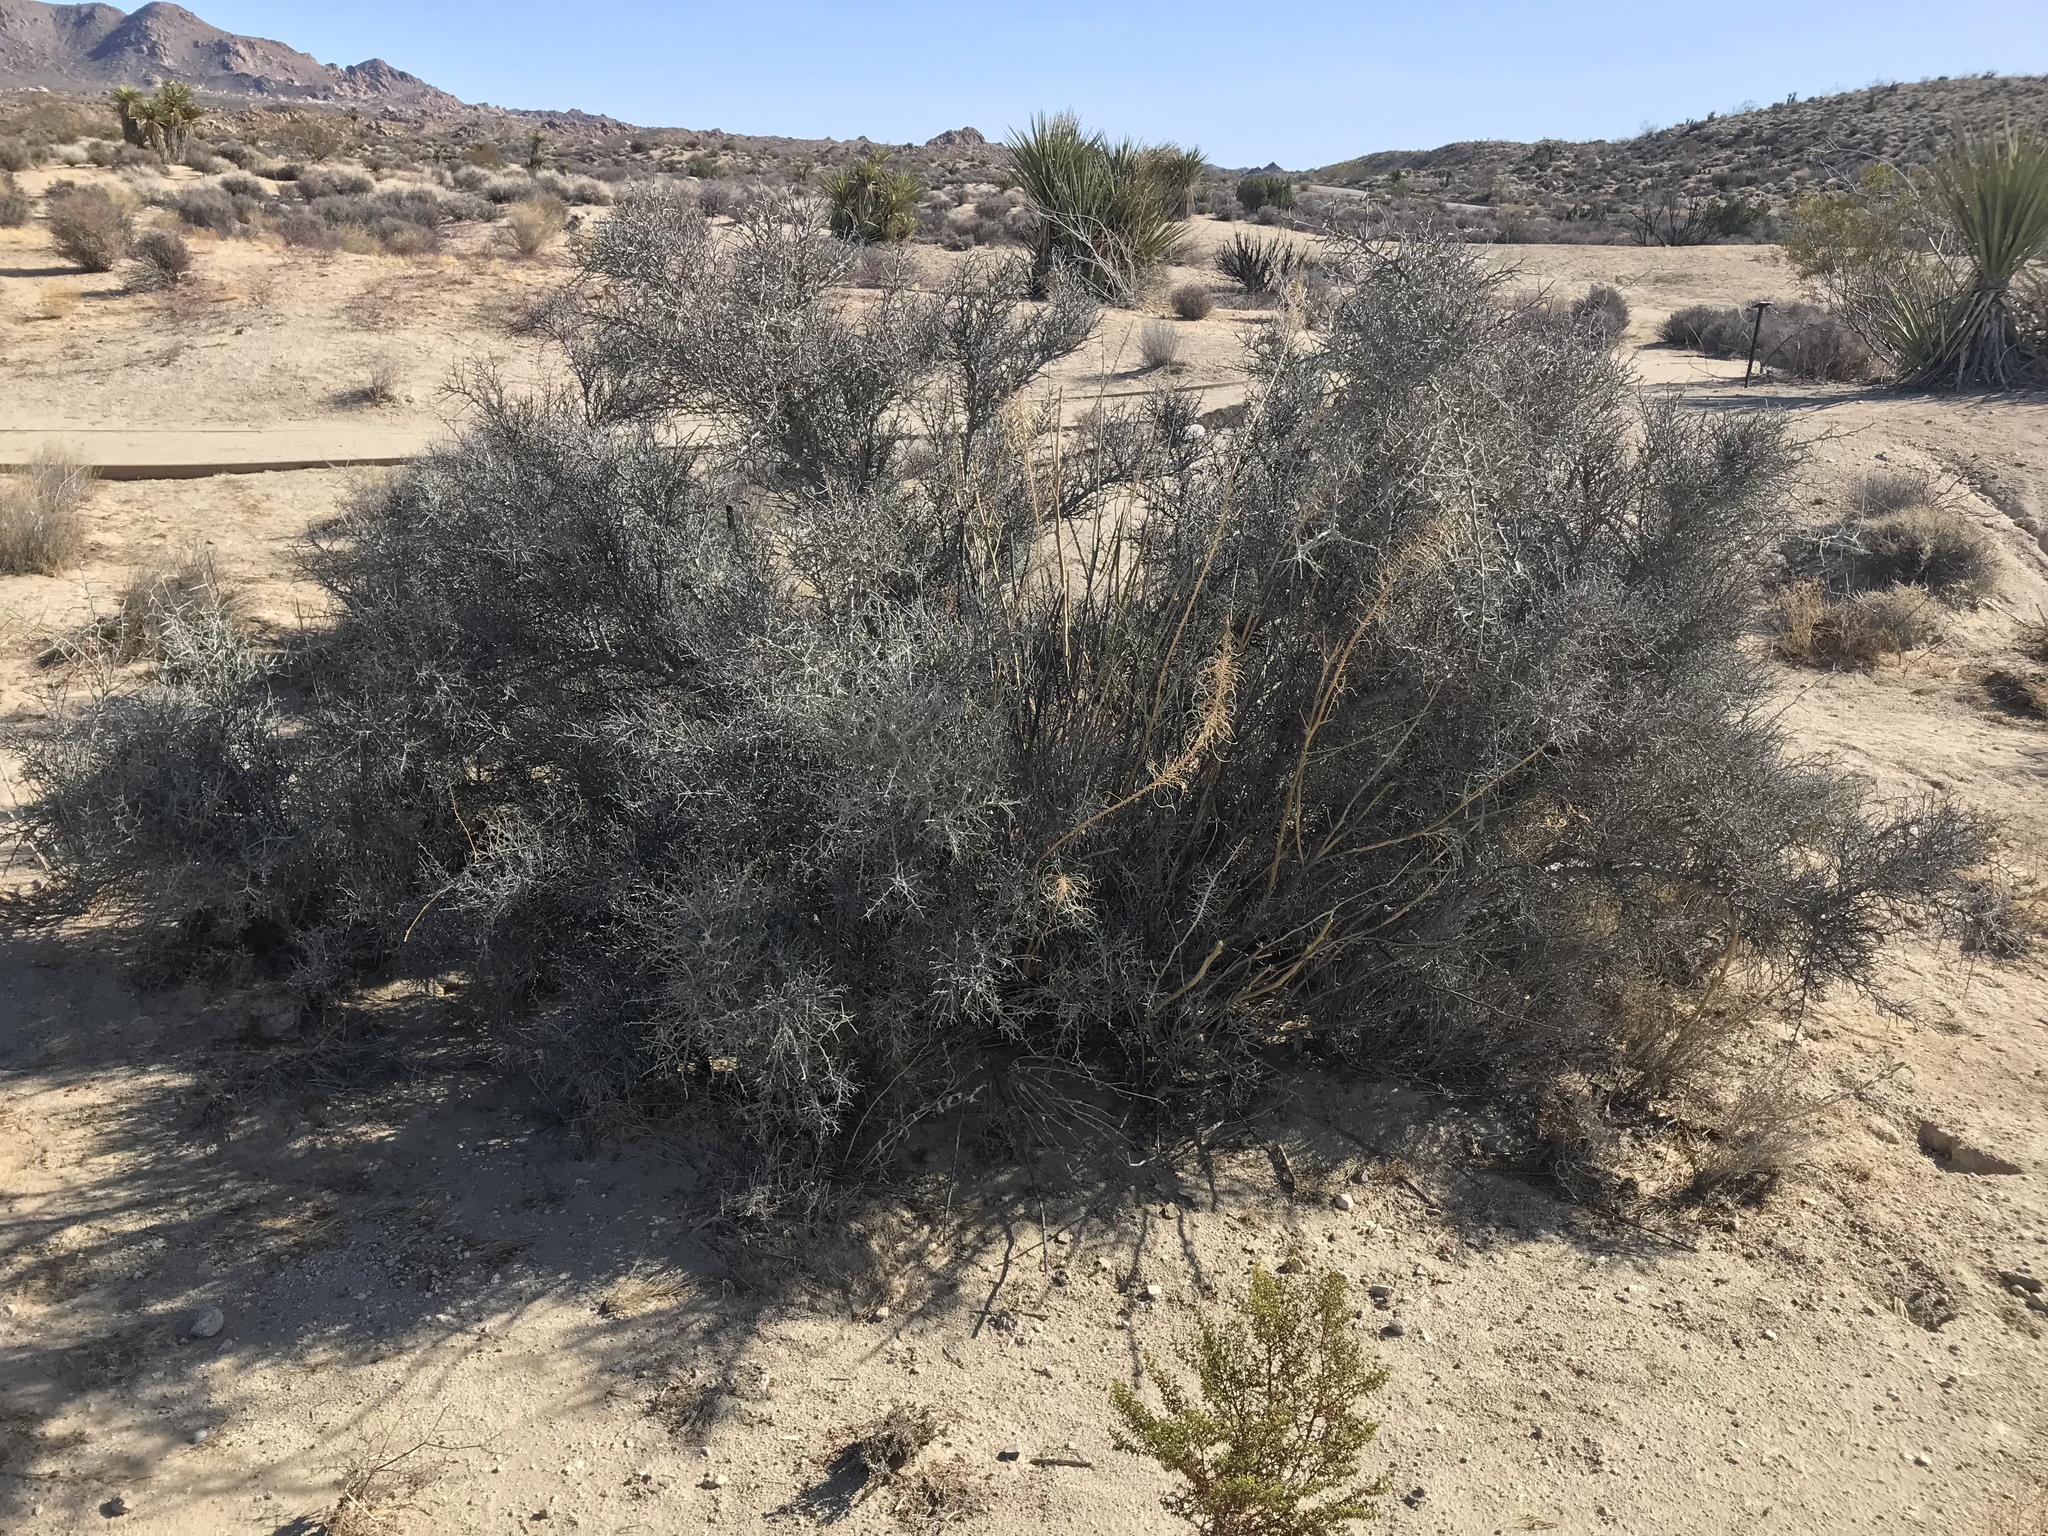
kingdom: Plantae
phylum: Tracheophyta
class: Magnoliopsida
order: Rosales
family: Rhamnaceae
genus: Sarcomphalus
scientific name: Sarcomphalus obtusifolius
